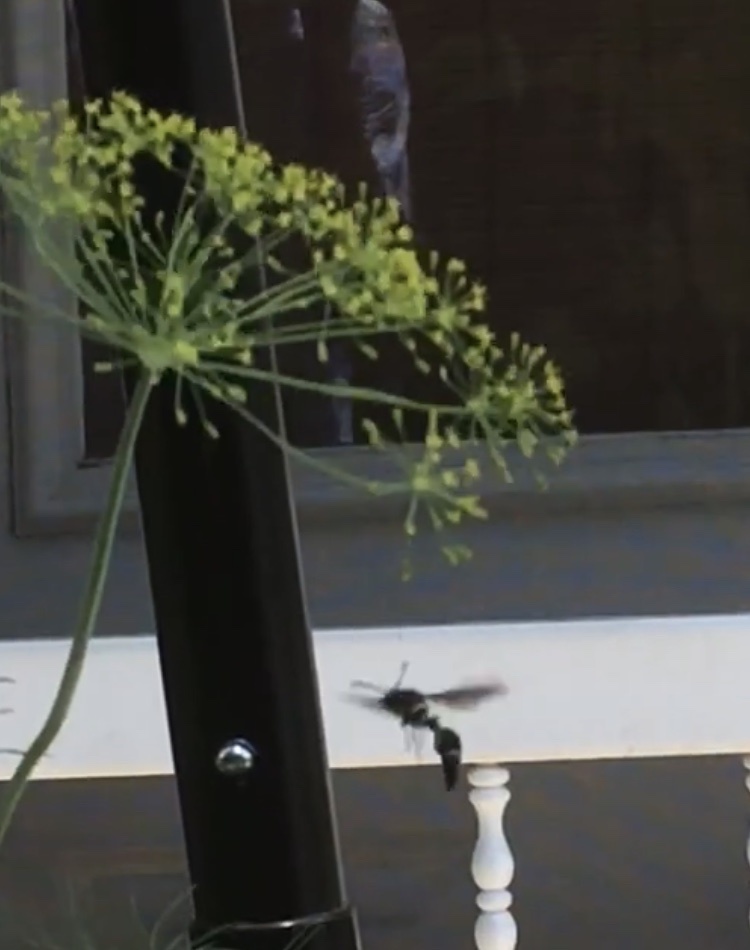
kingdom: Animalia
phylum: Arthropoda
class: Insecta
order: Hymenoptera
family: Eumenidae
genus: Zethus
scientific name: Zethus spinipes
